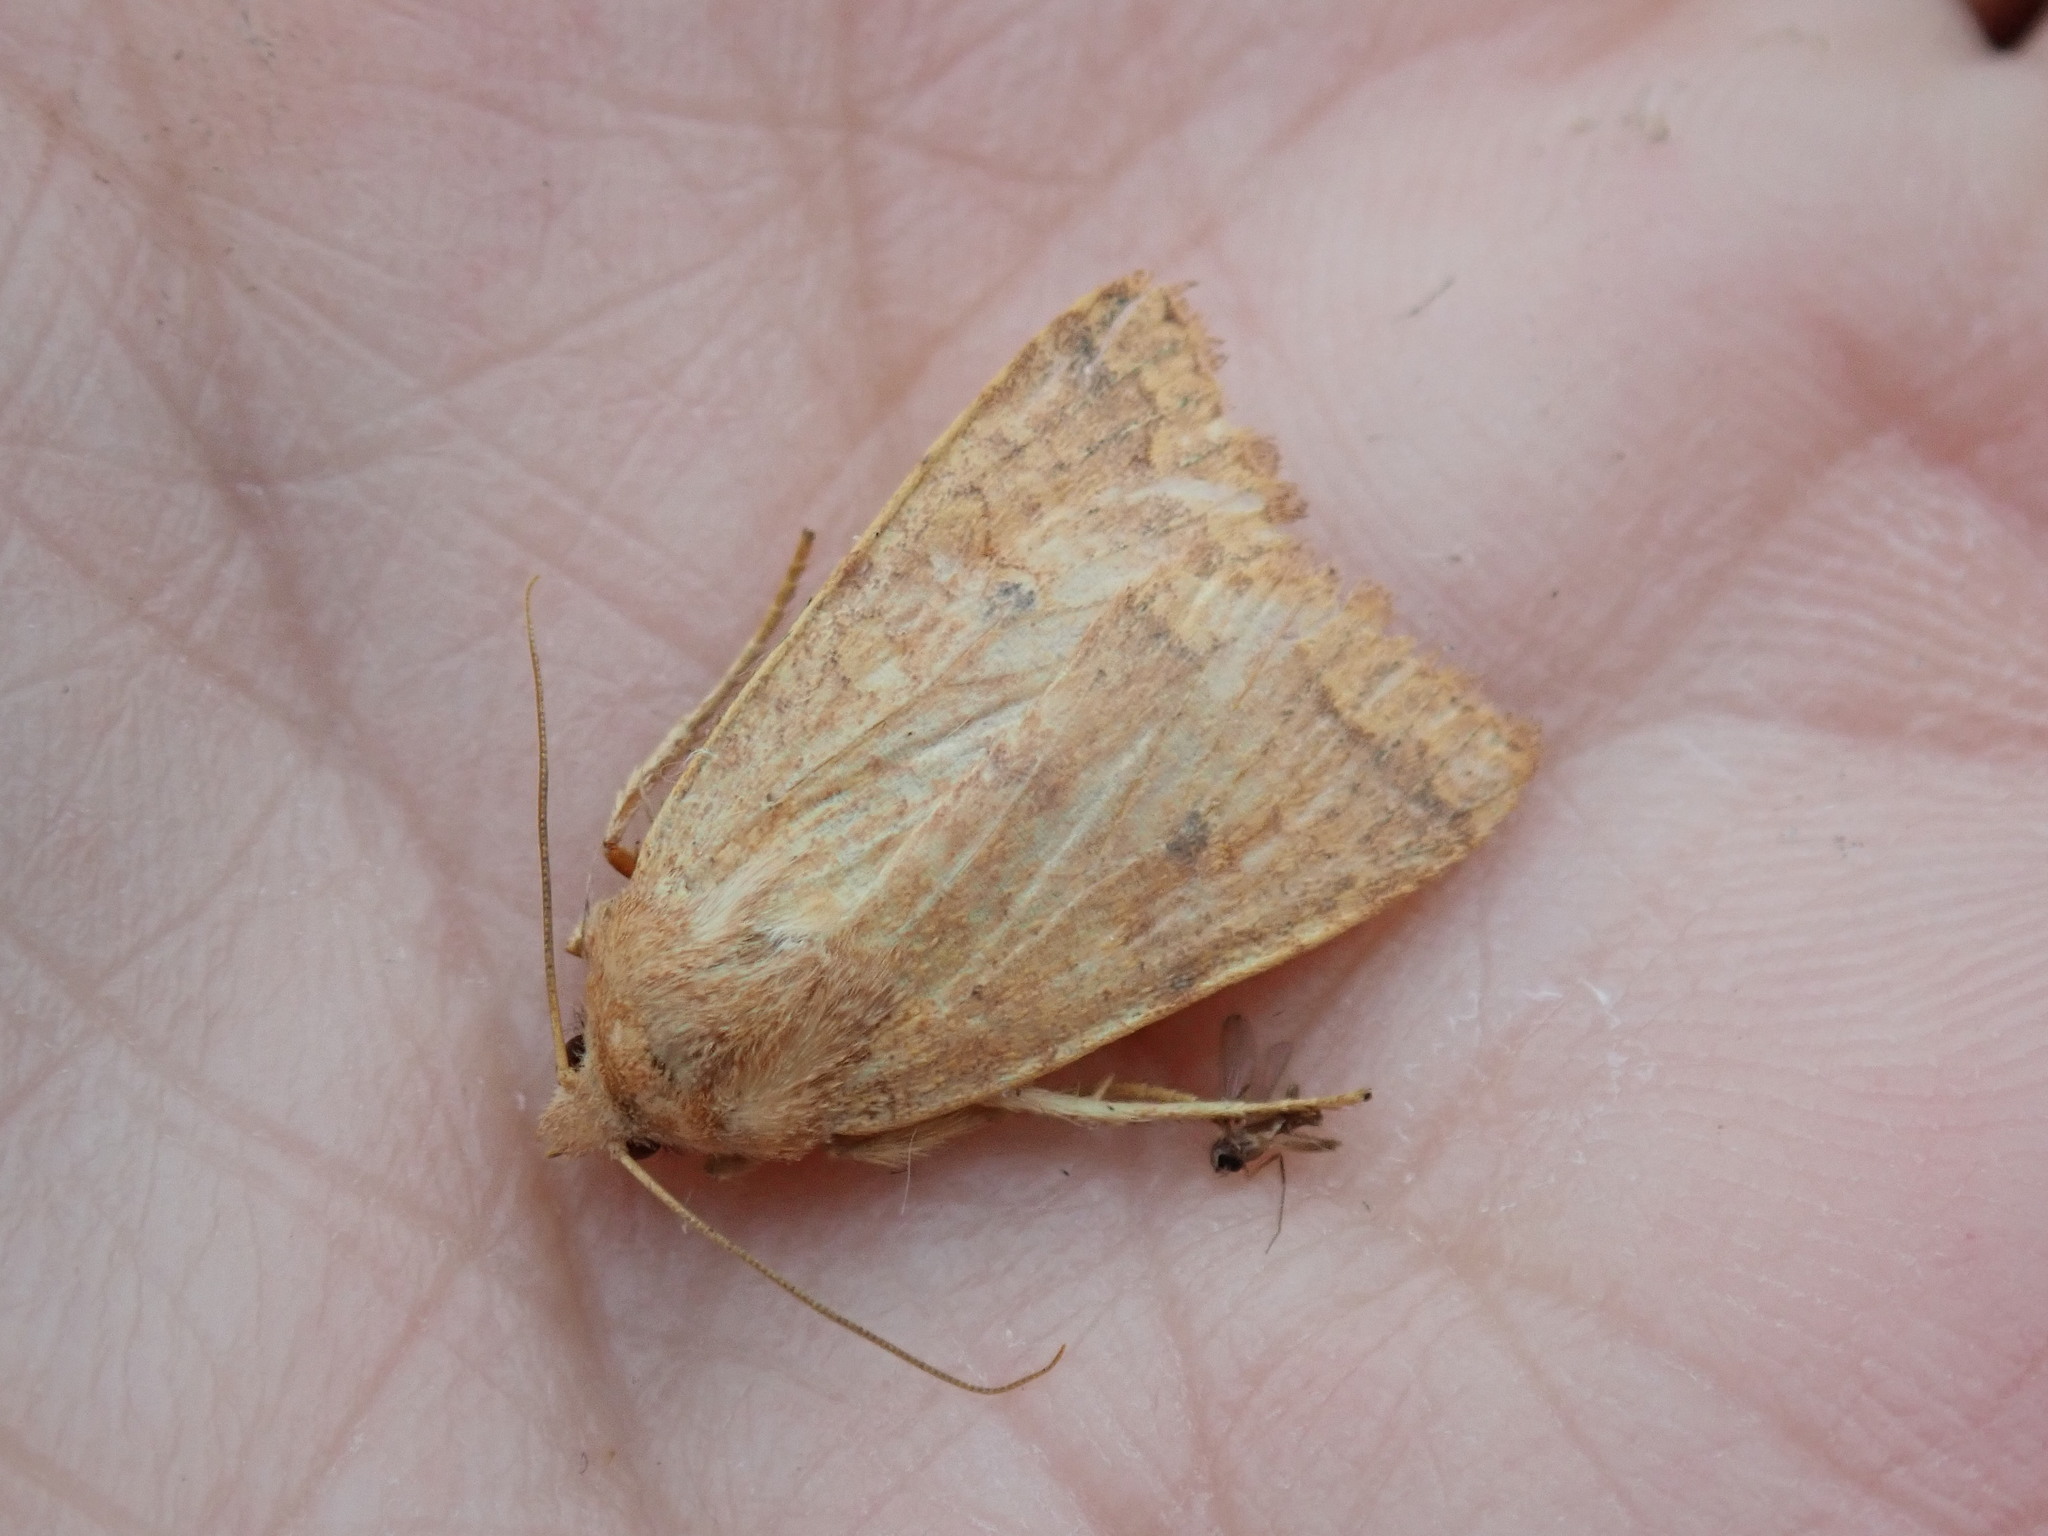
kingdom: Animalia
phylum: Arthropoda
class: Insecta
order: Lepidoptera
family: Noctuidae
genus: Agrochola
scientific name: Agrochola bicolorago
